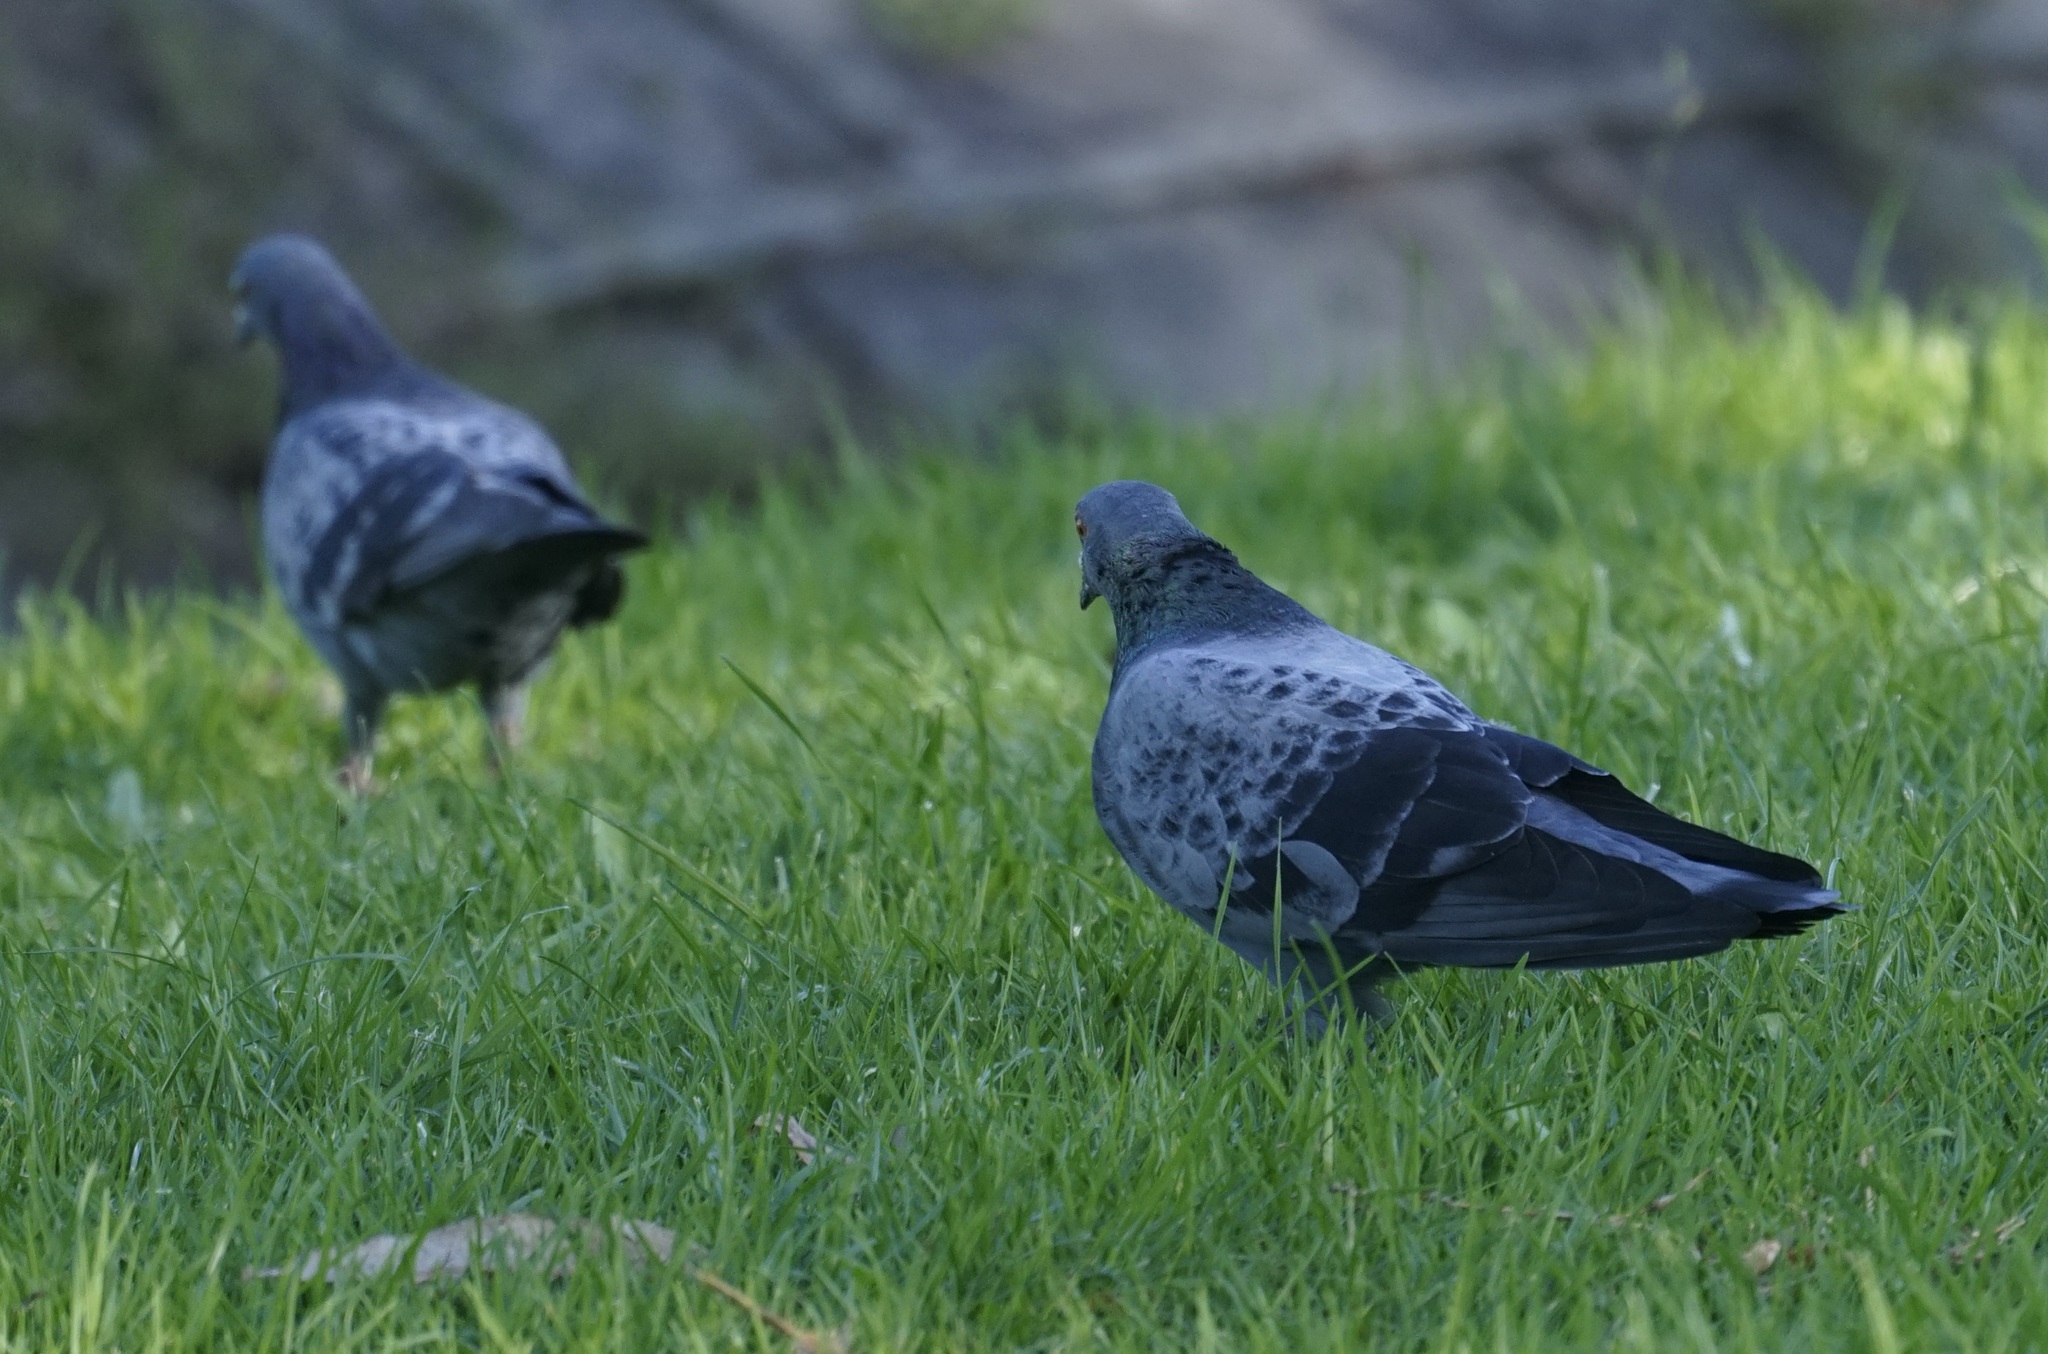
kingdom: Animalia
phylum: Chordata
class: Aves
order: Columbiformes
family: Columbidae
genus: Columba
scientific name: Columba livia
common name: Rock pigeon
